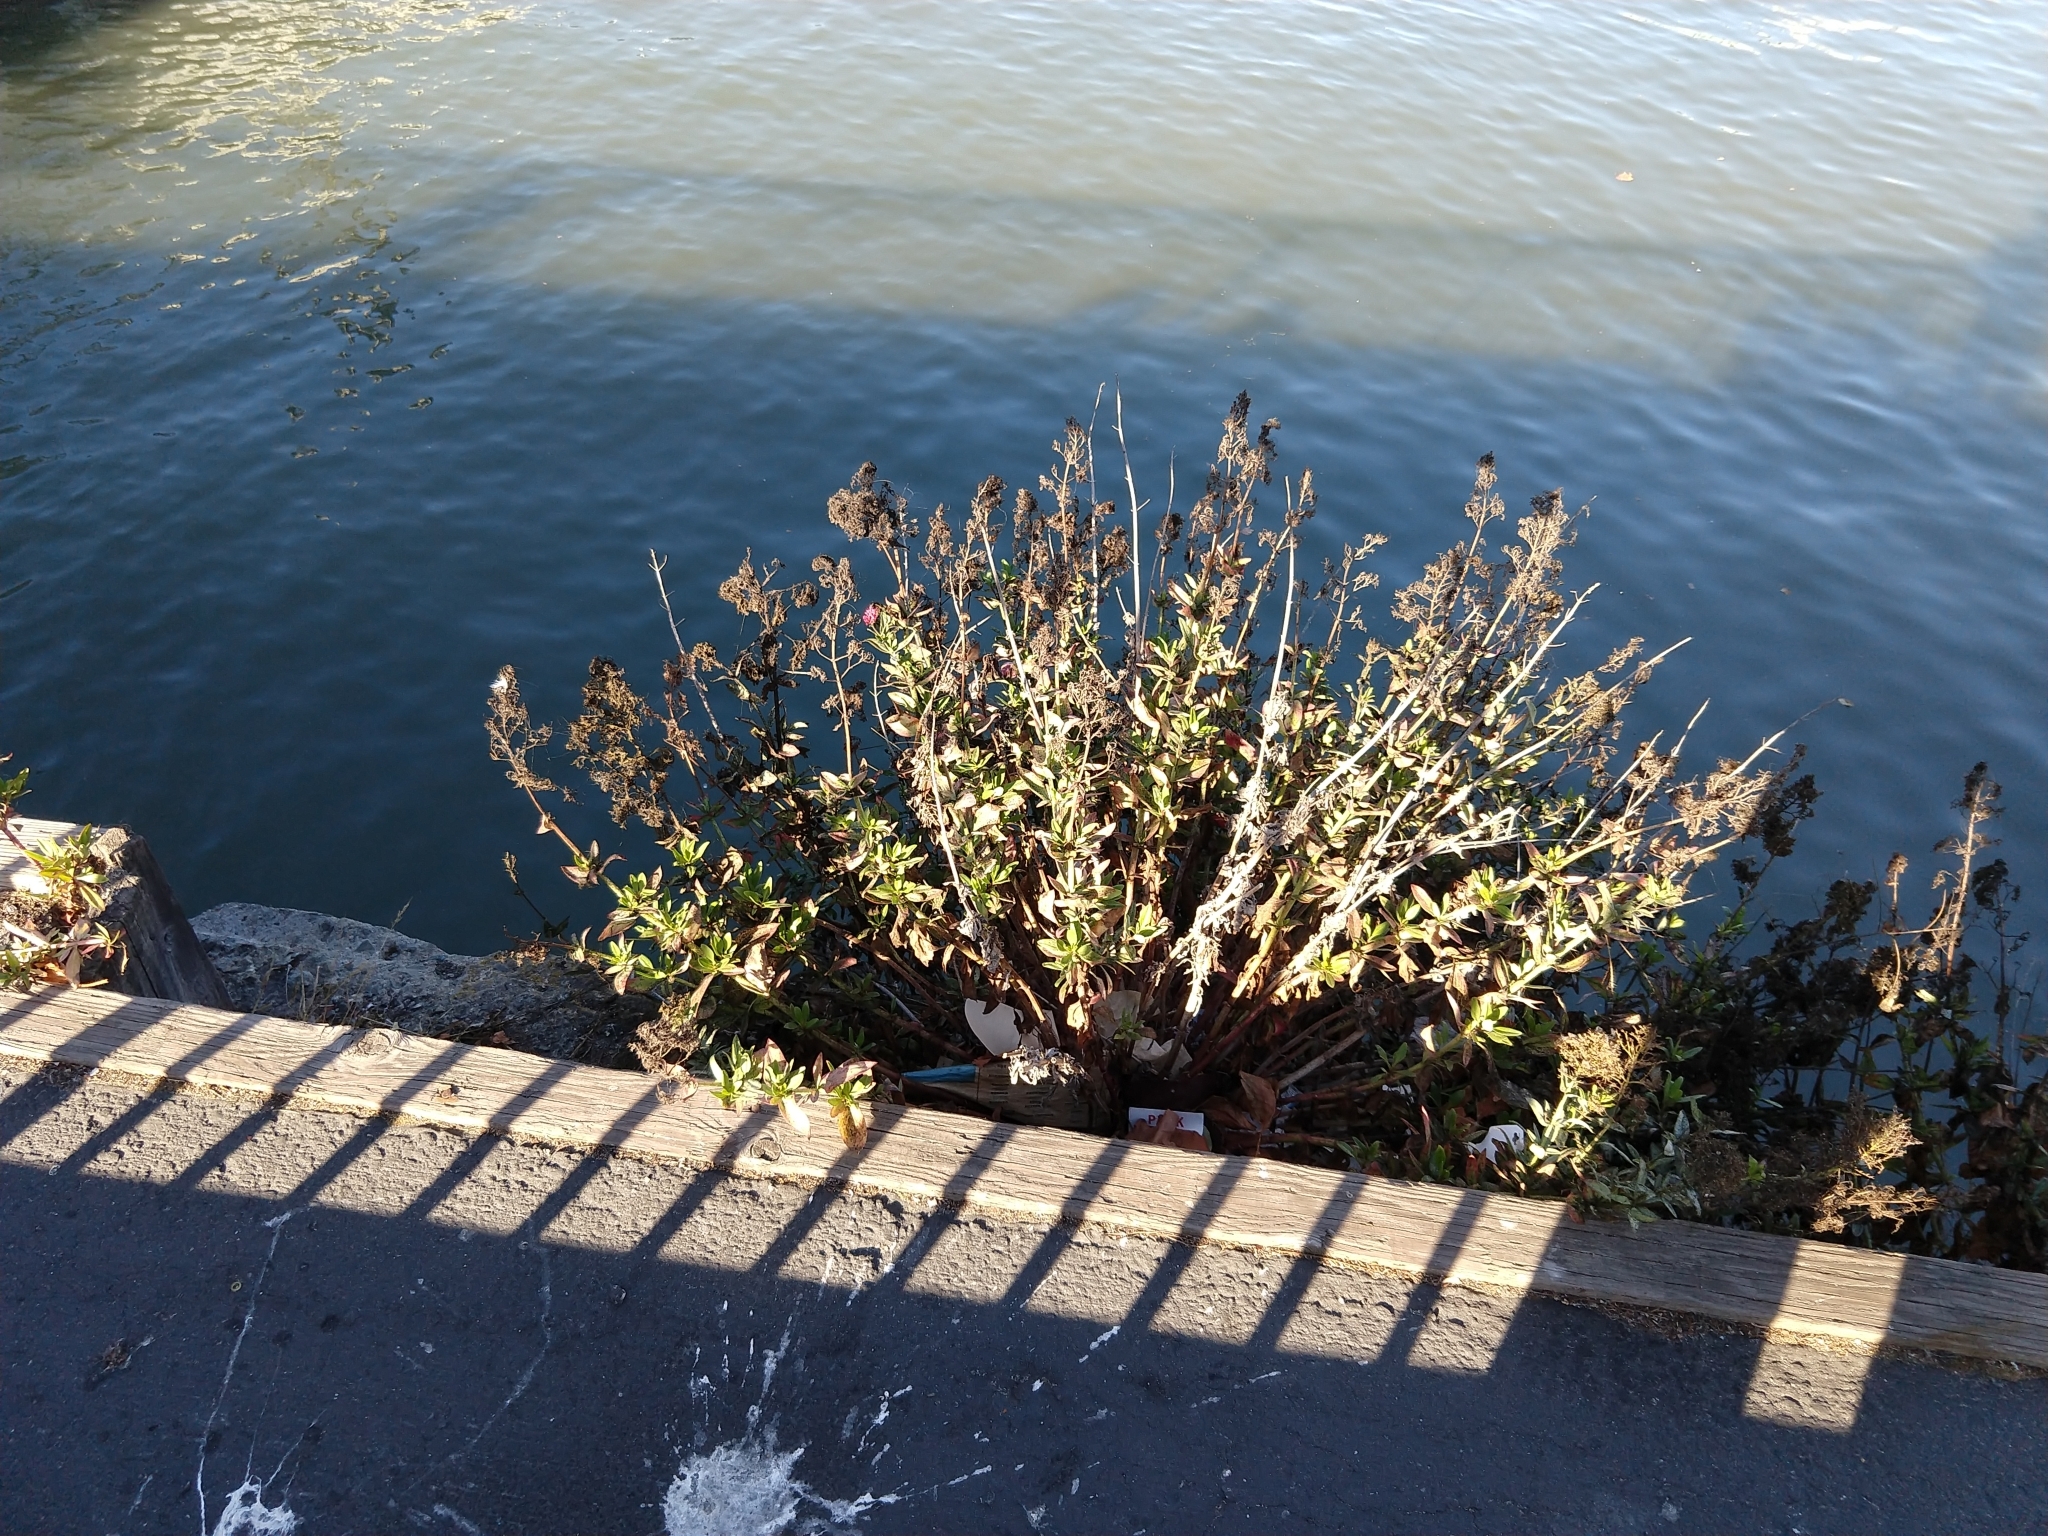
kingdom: Plantae
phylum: Tracheophyta
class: Magnoliopsida
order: Dipsacales
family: Caprifoliaceae
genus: Centranthus
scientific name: Centranthus ruber
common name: Red valerian
